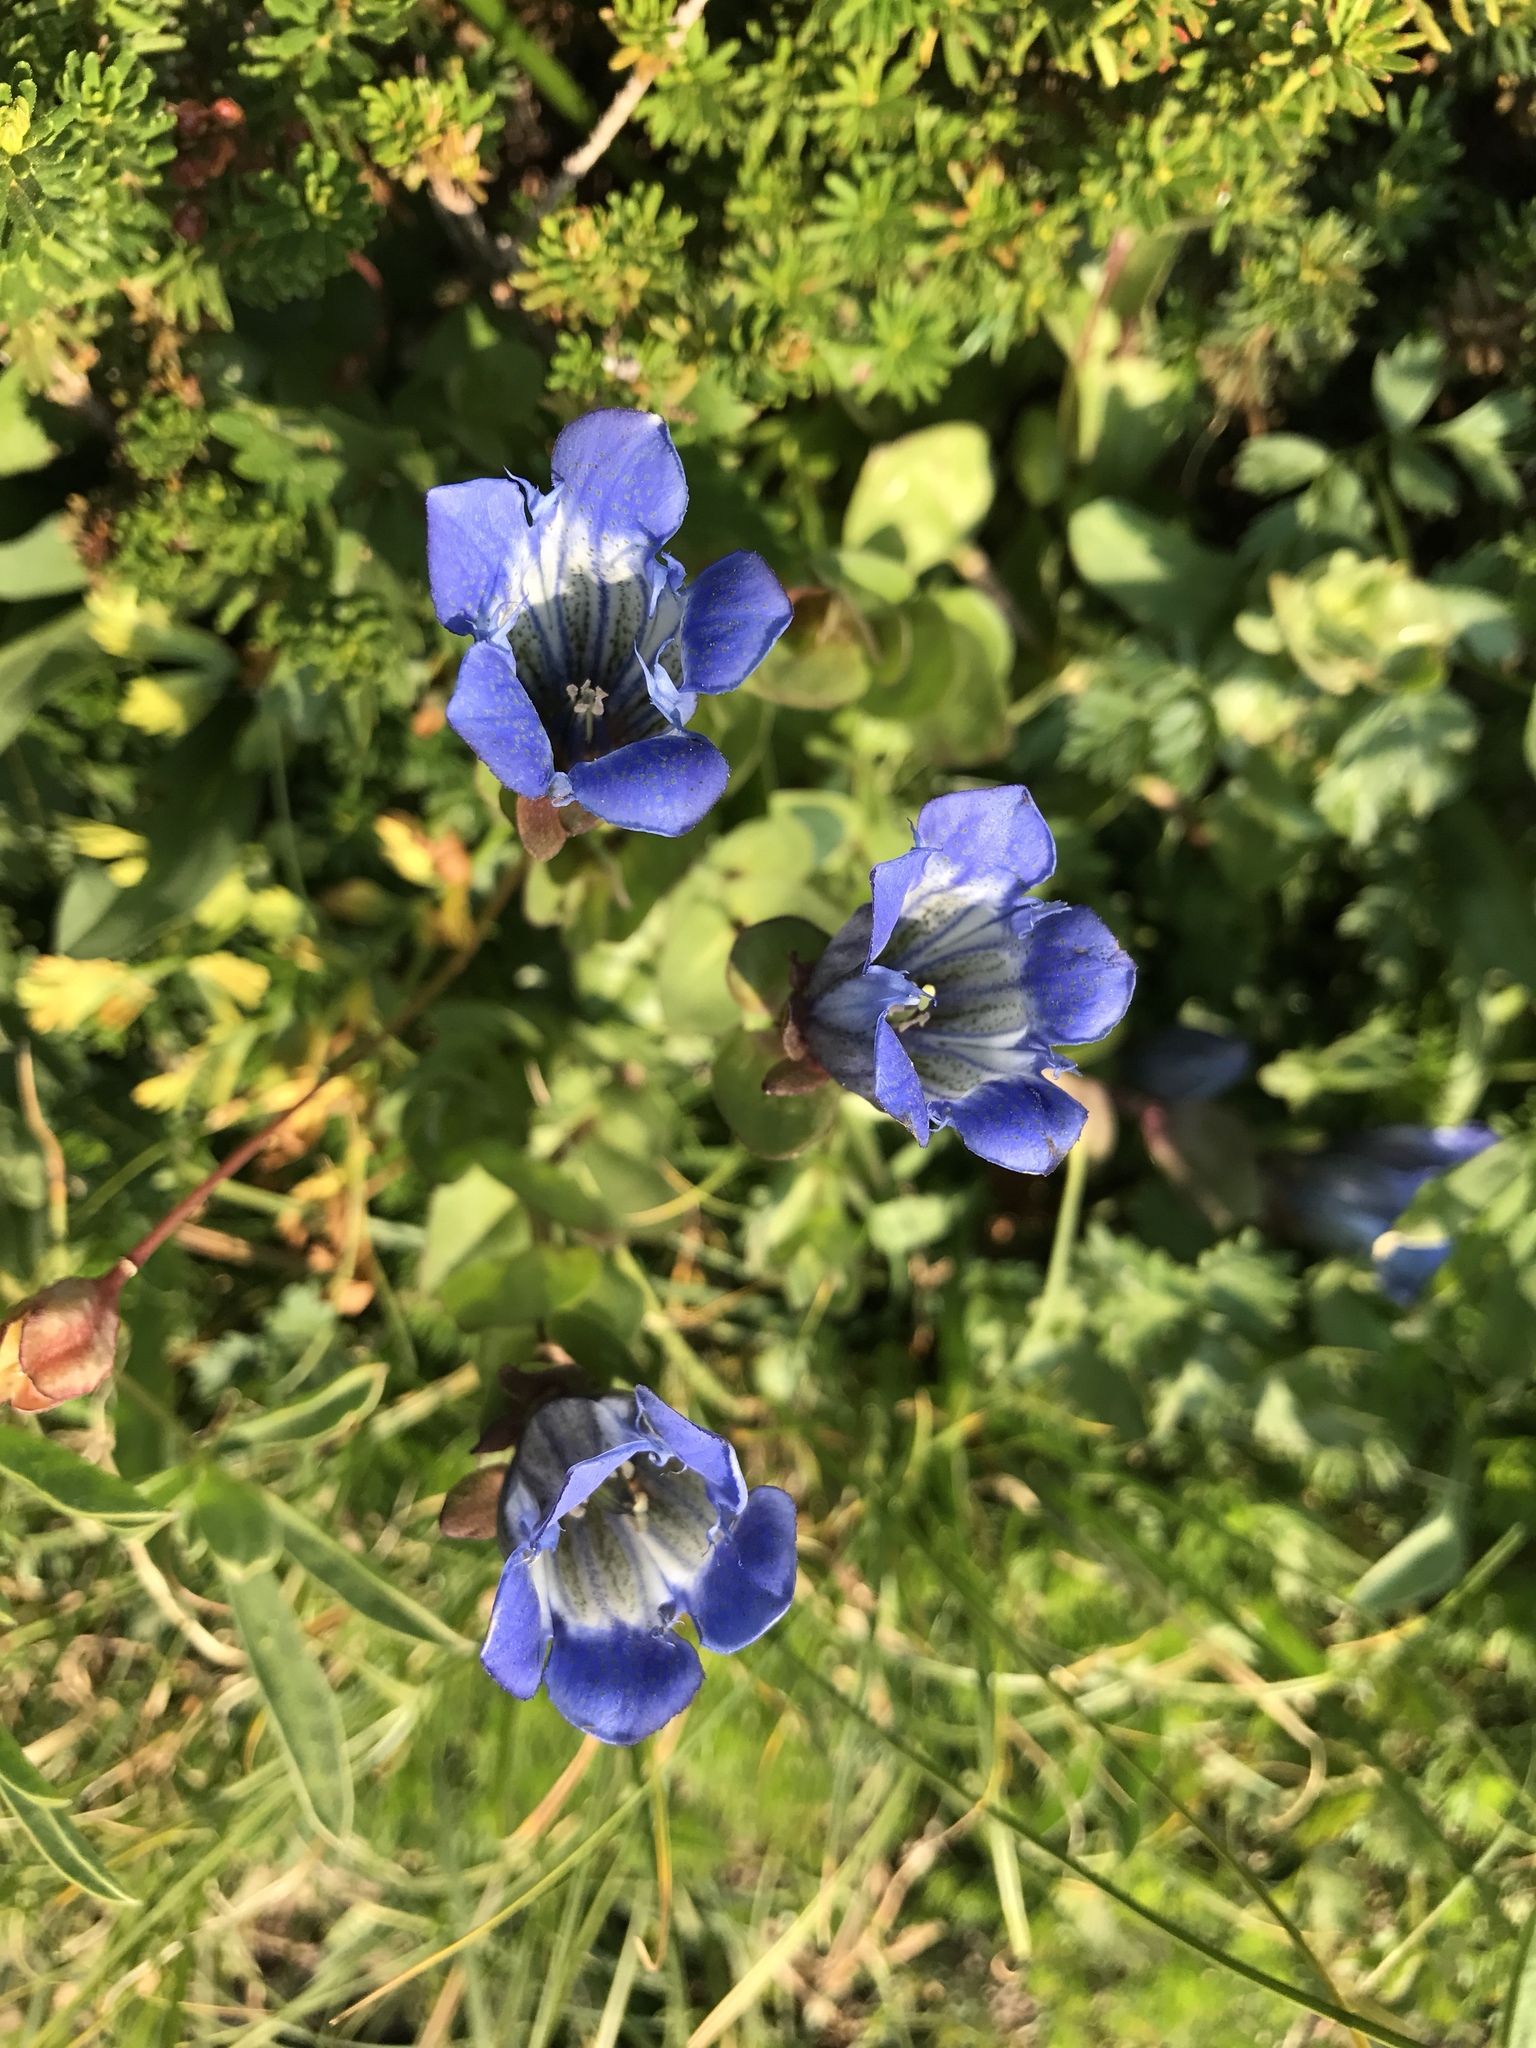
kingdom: Plantae
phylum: Tracheophyta
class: Magnoliopsida
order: Gentianales
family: Gentianaceae
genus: Gentiana
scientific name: Gentiana calycosa
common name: Rainier pleated gentian
